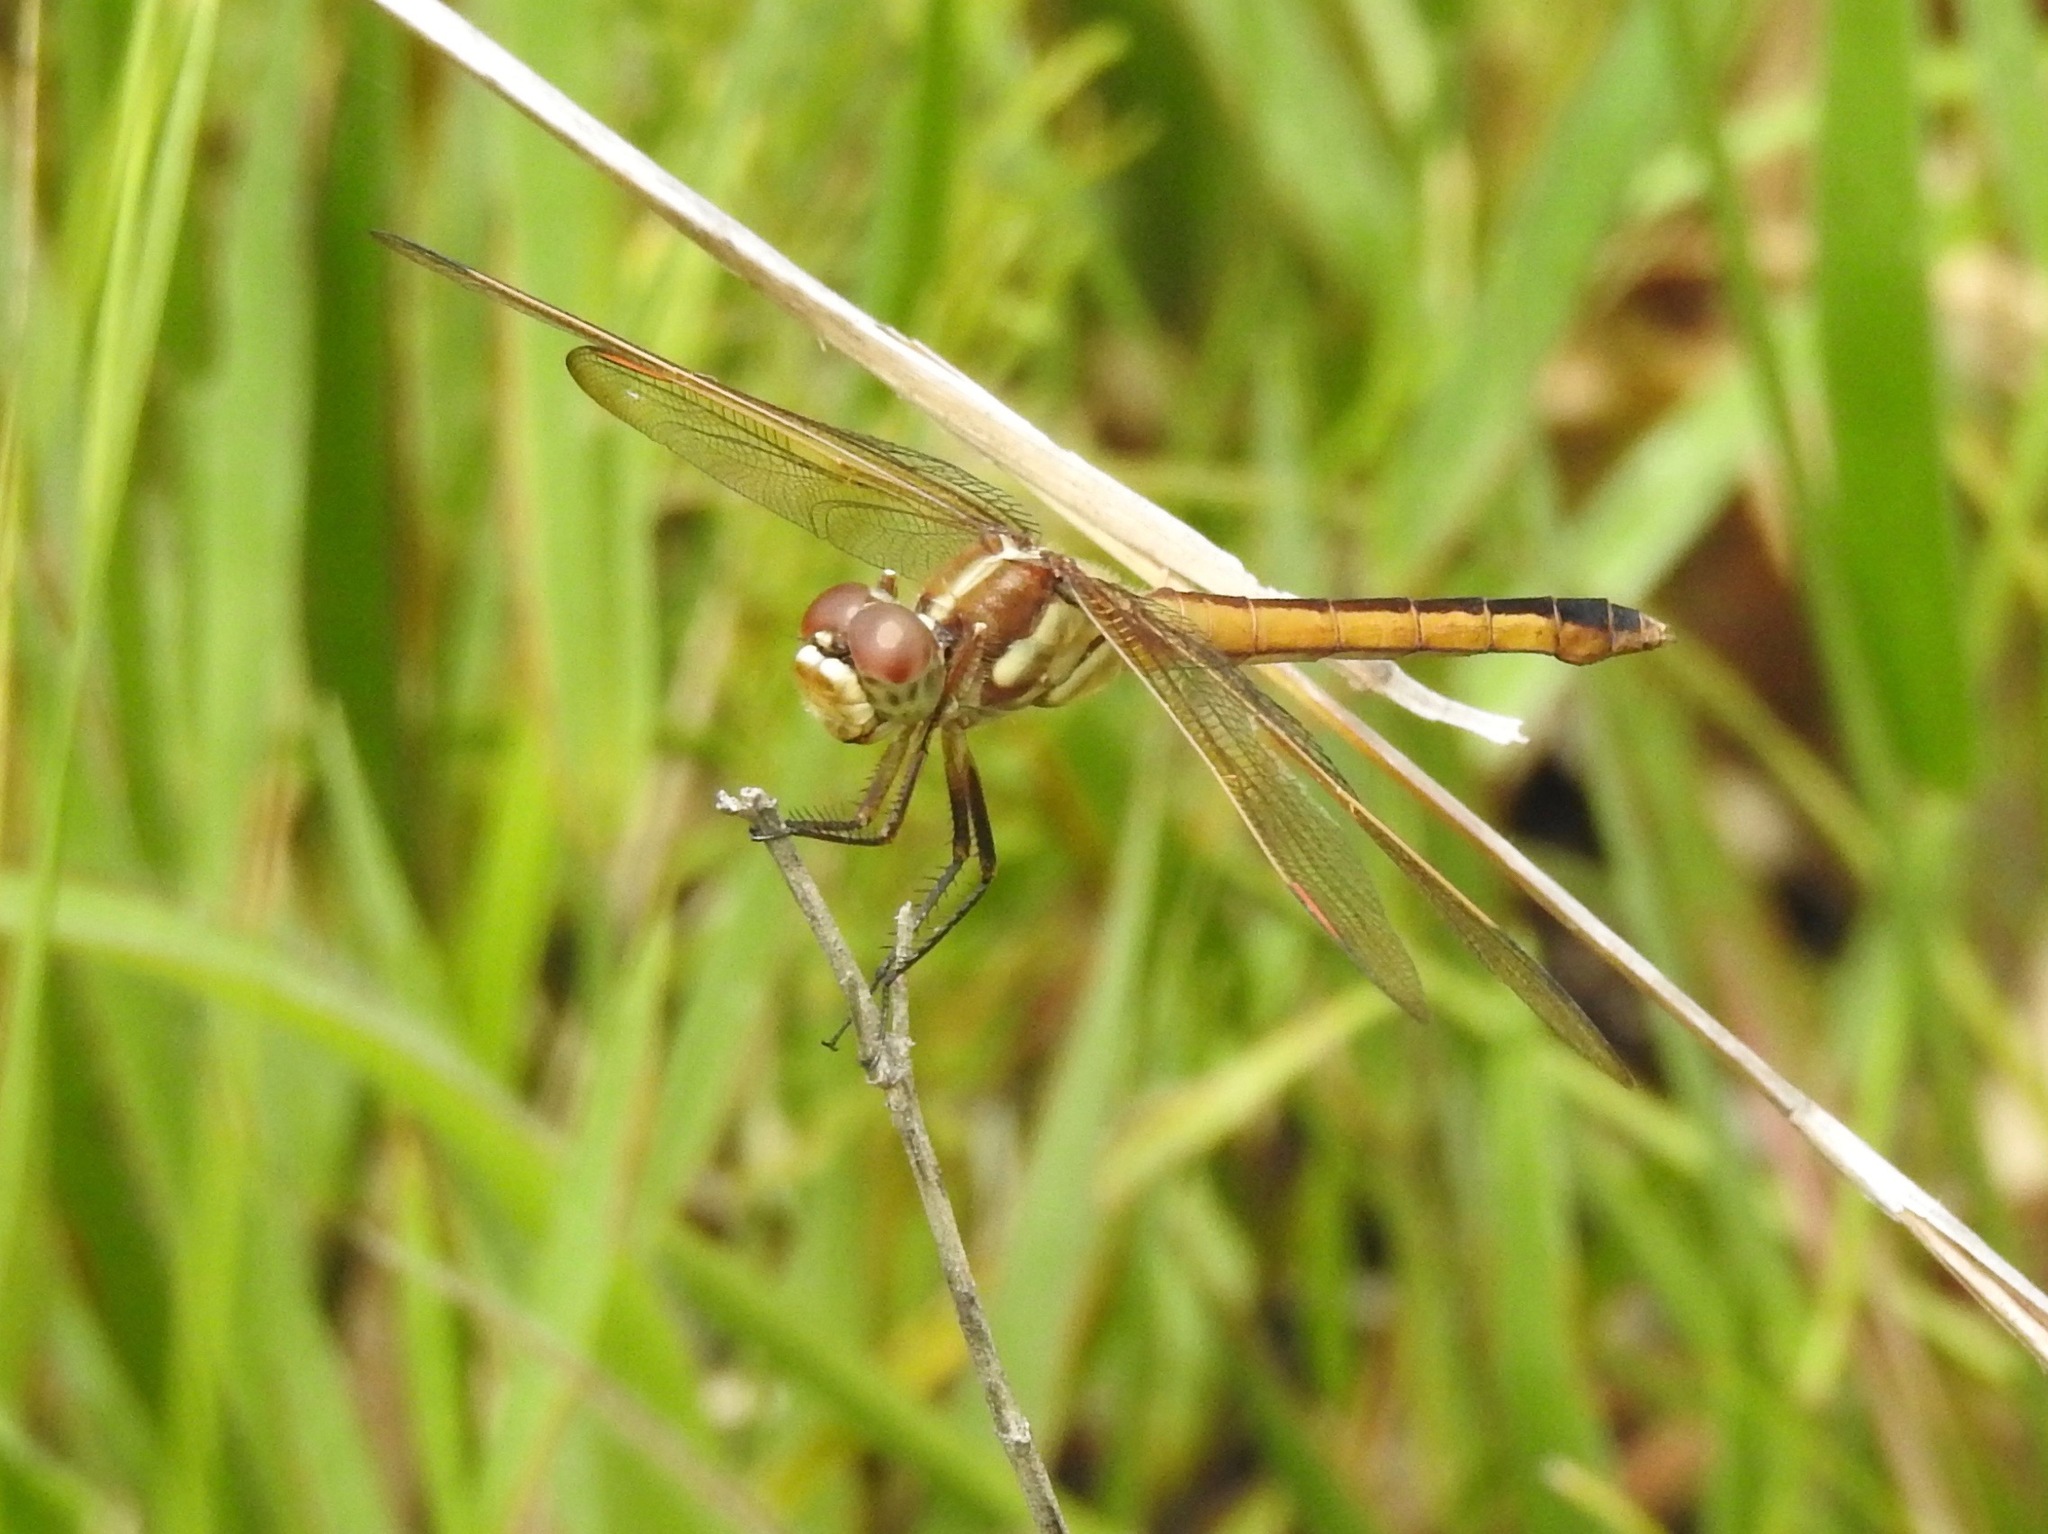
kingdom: Animalia
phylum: Arthropoda
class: Insecta
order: Odonata
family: Libellulidae
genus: Libellula
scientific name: Libellula auripennis
